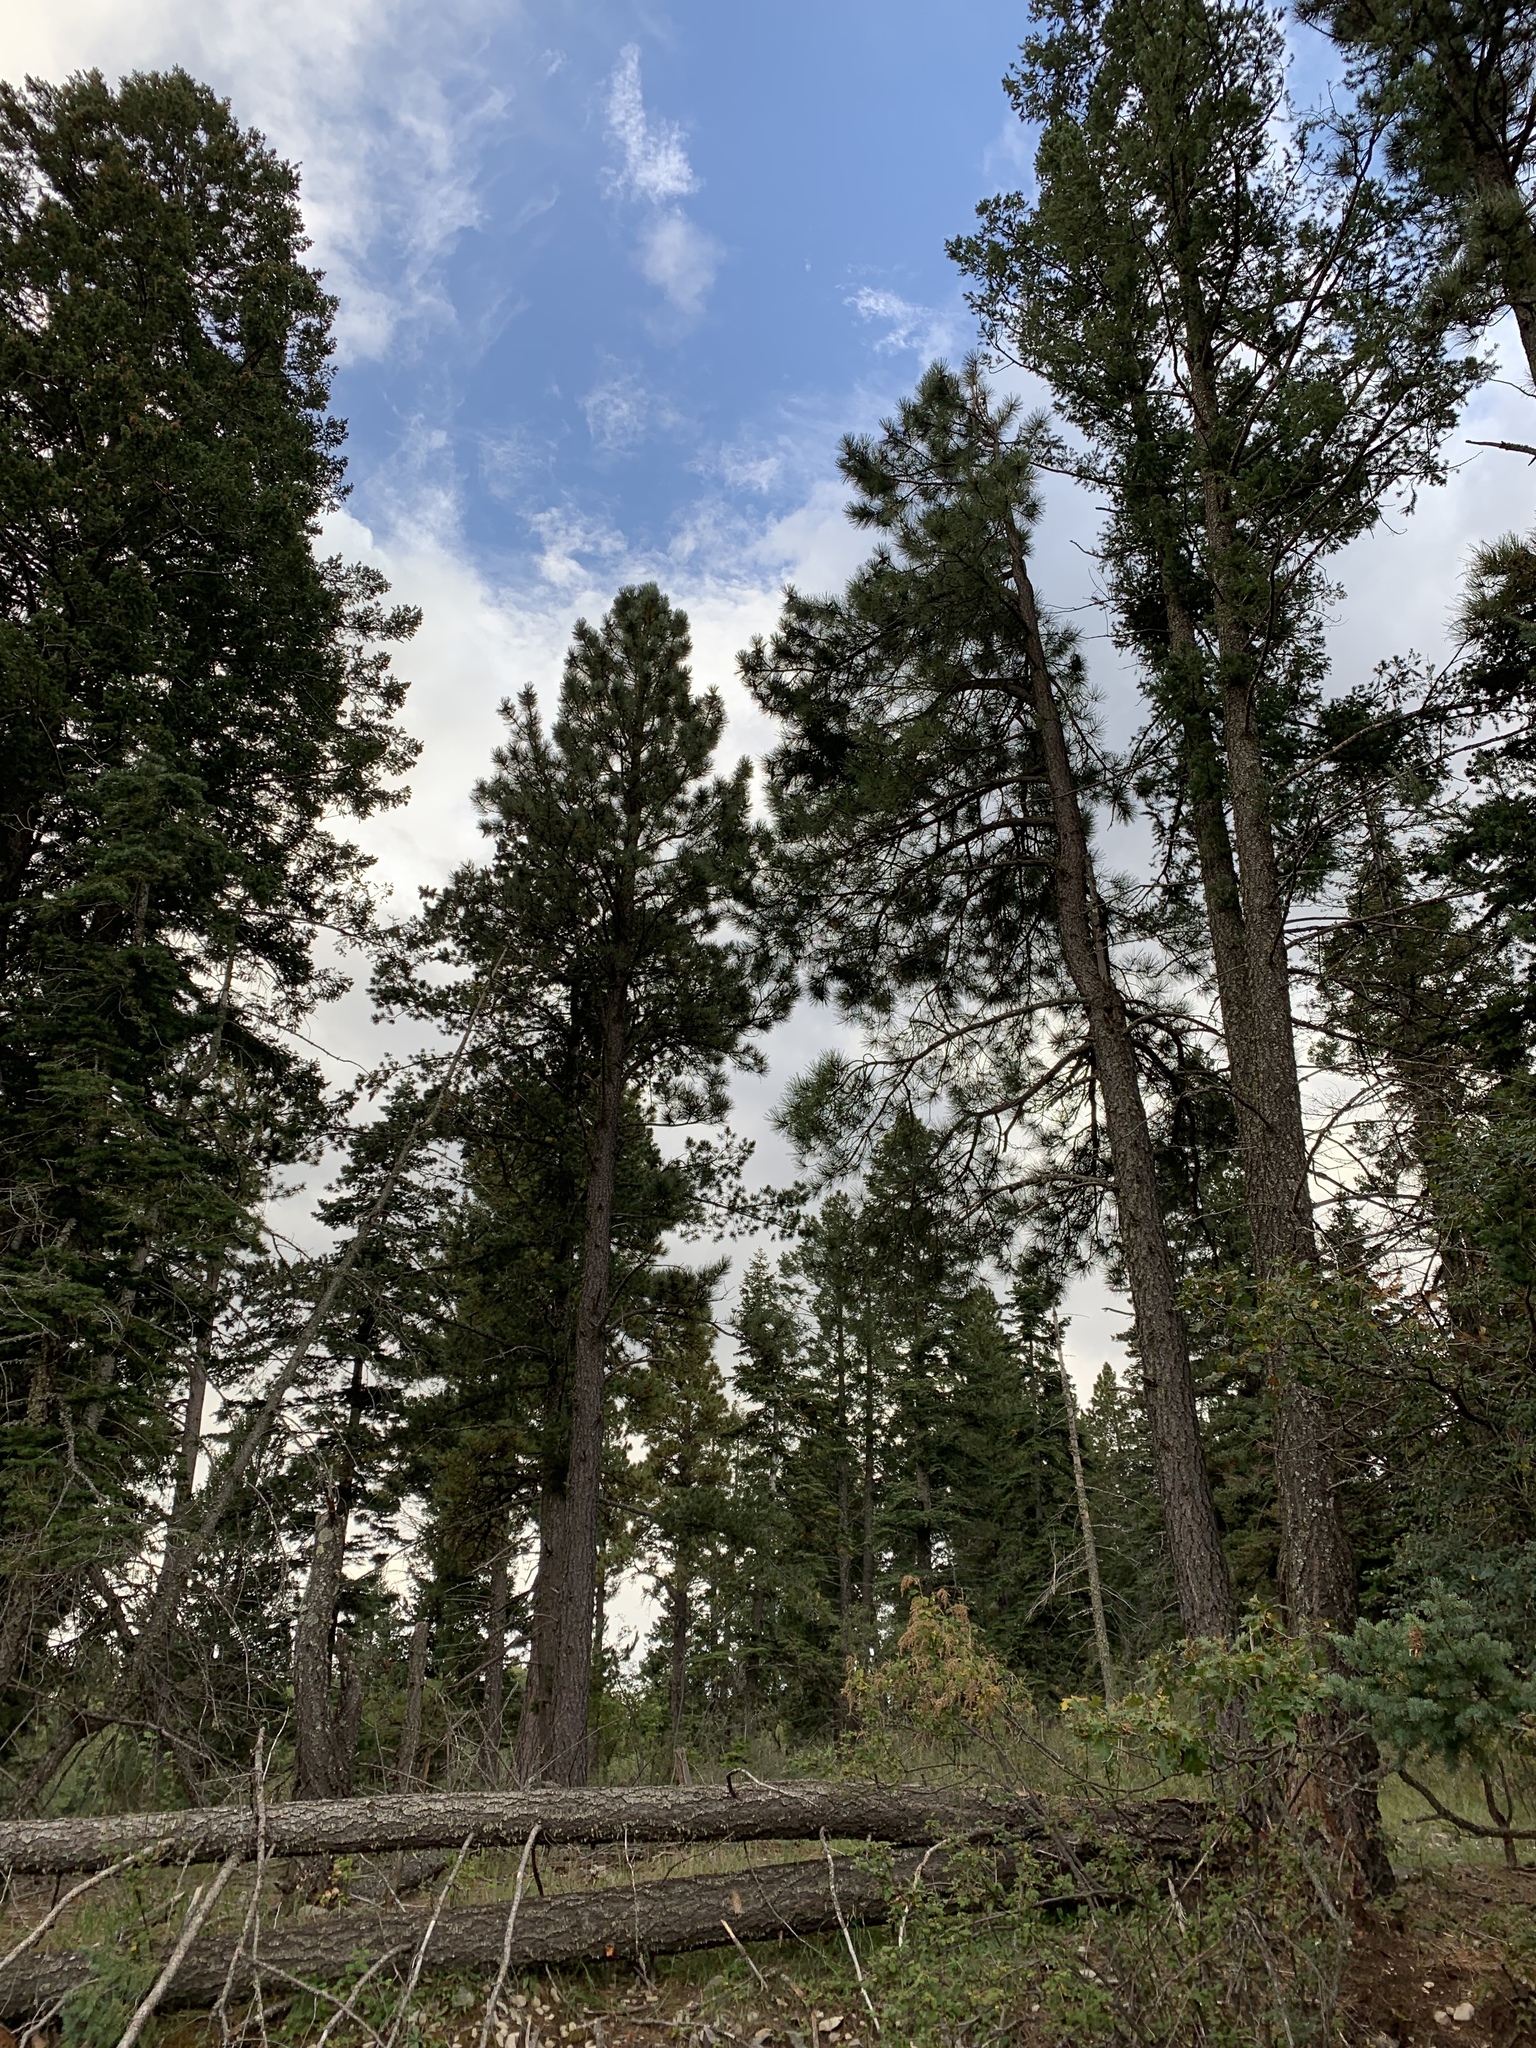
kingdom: Plantae
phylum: Tracheophyta
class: Pinopsida
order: Pinales
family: Pinaceae
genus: Pinus
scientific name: Pinus ponderosa
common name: Western yellow-pine
